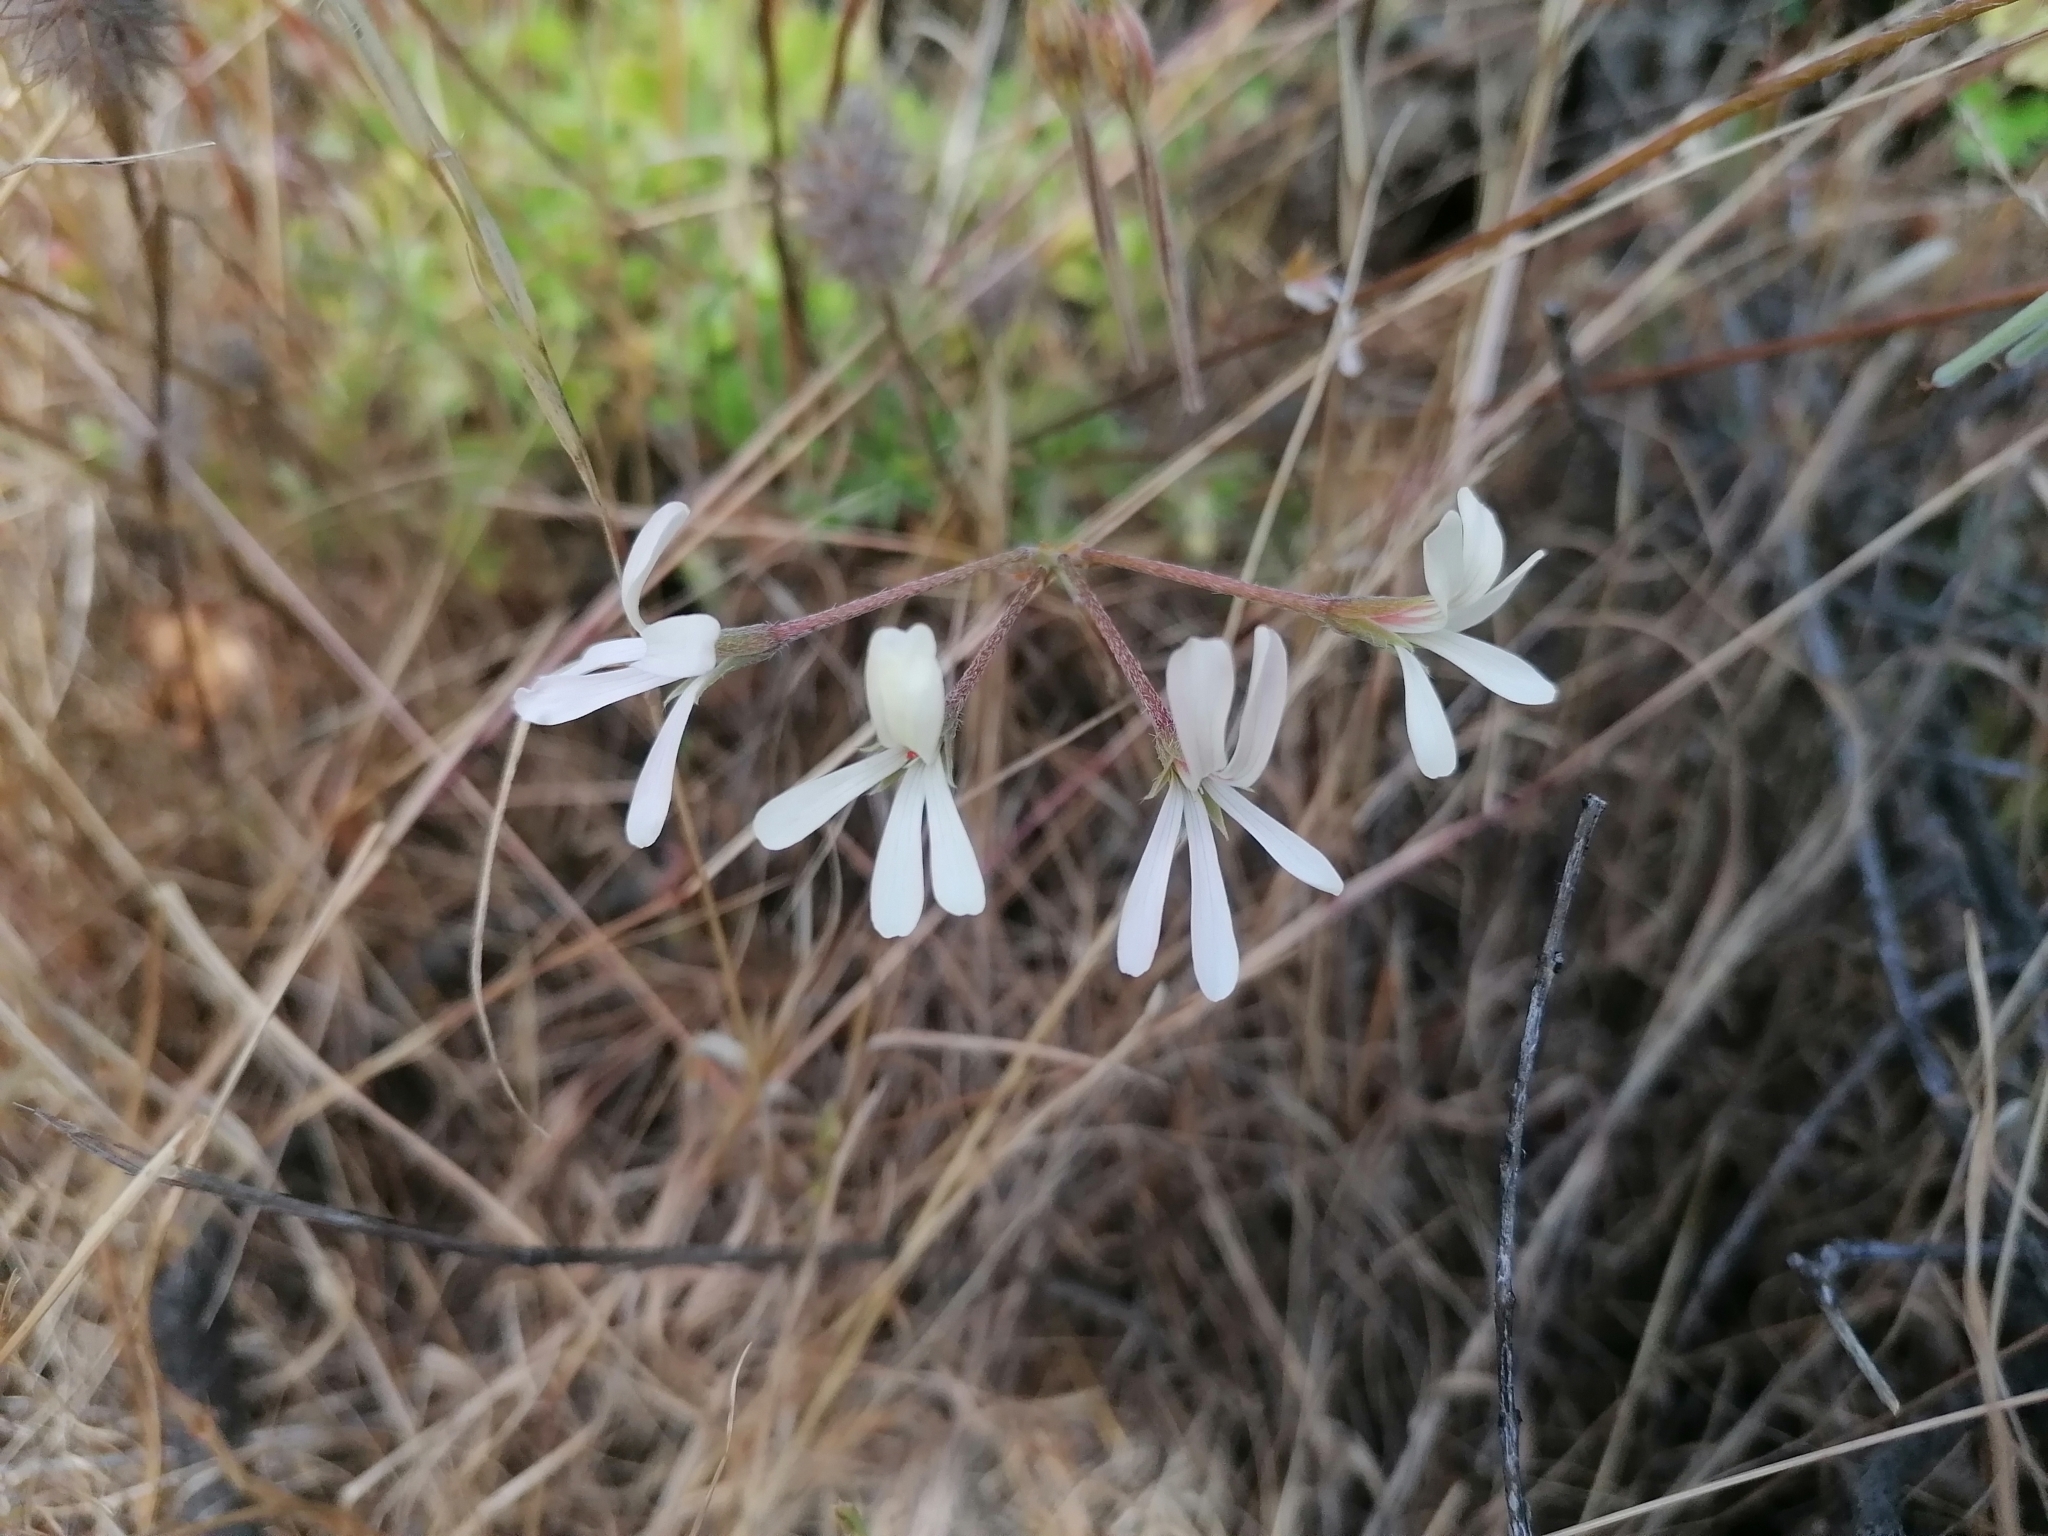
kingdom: Plantae
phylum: Tracheophyta
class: Magnoliopsida
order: Geraniales
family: Geraniaceae
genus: Pelargonium
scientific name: Pelargonium alchemilloides
